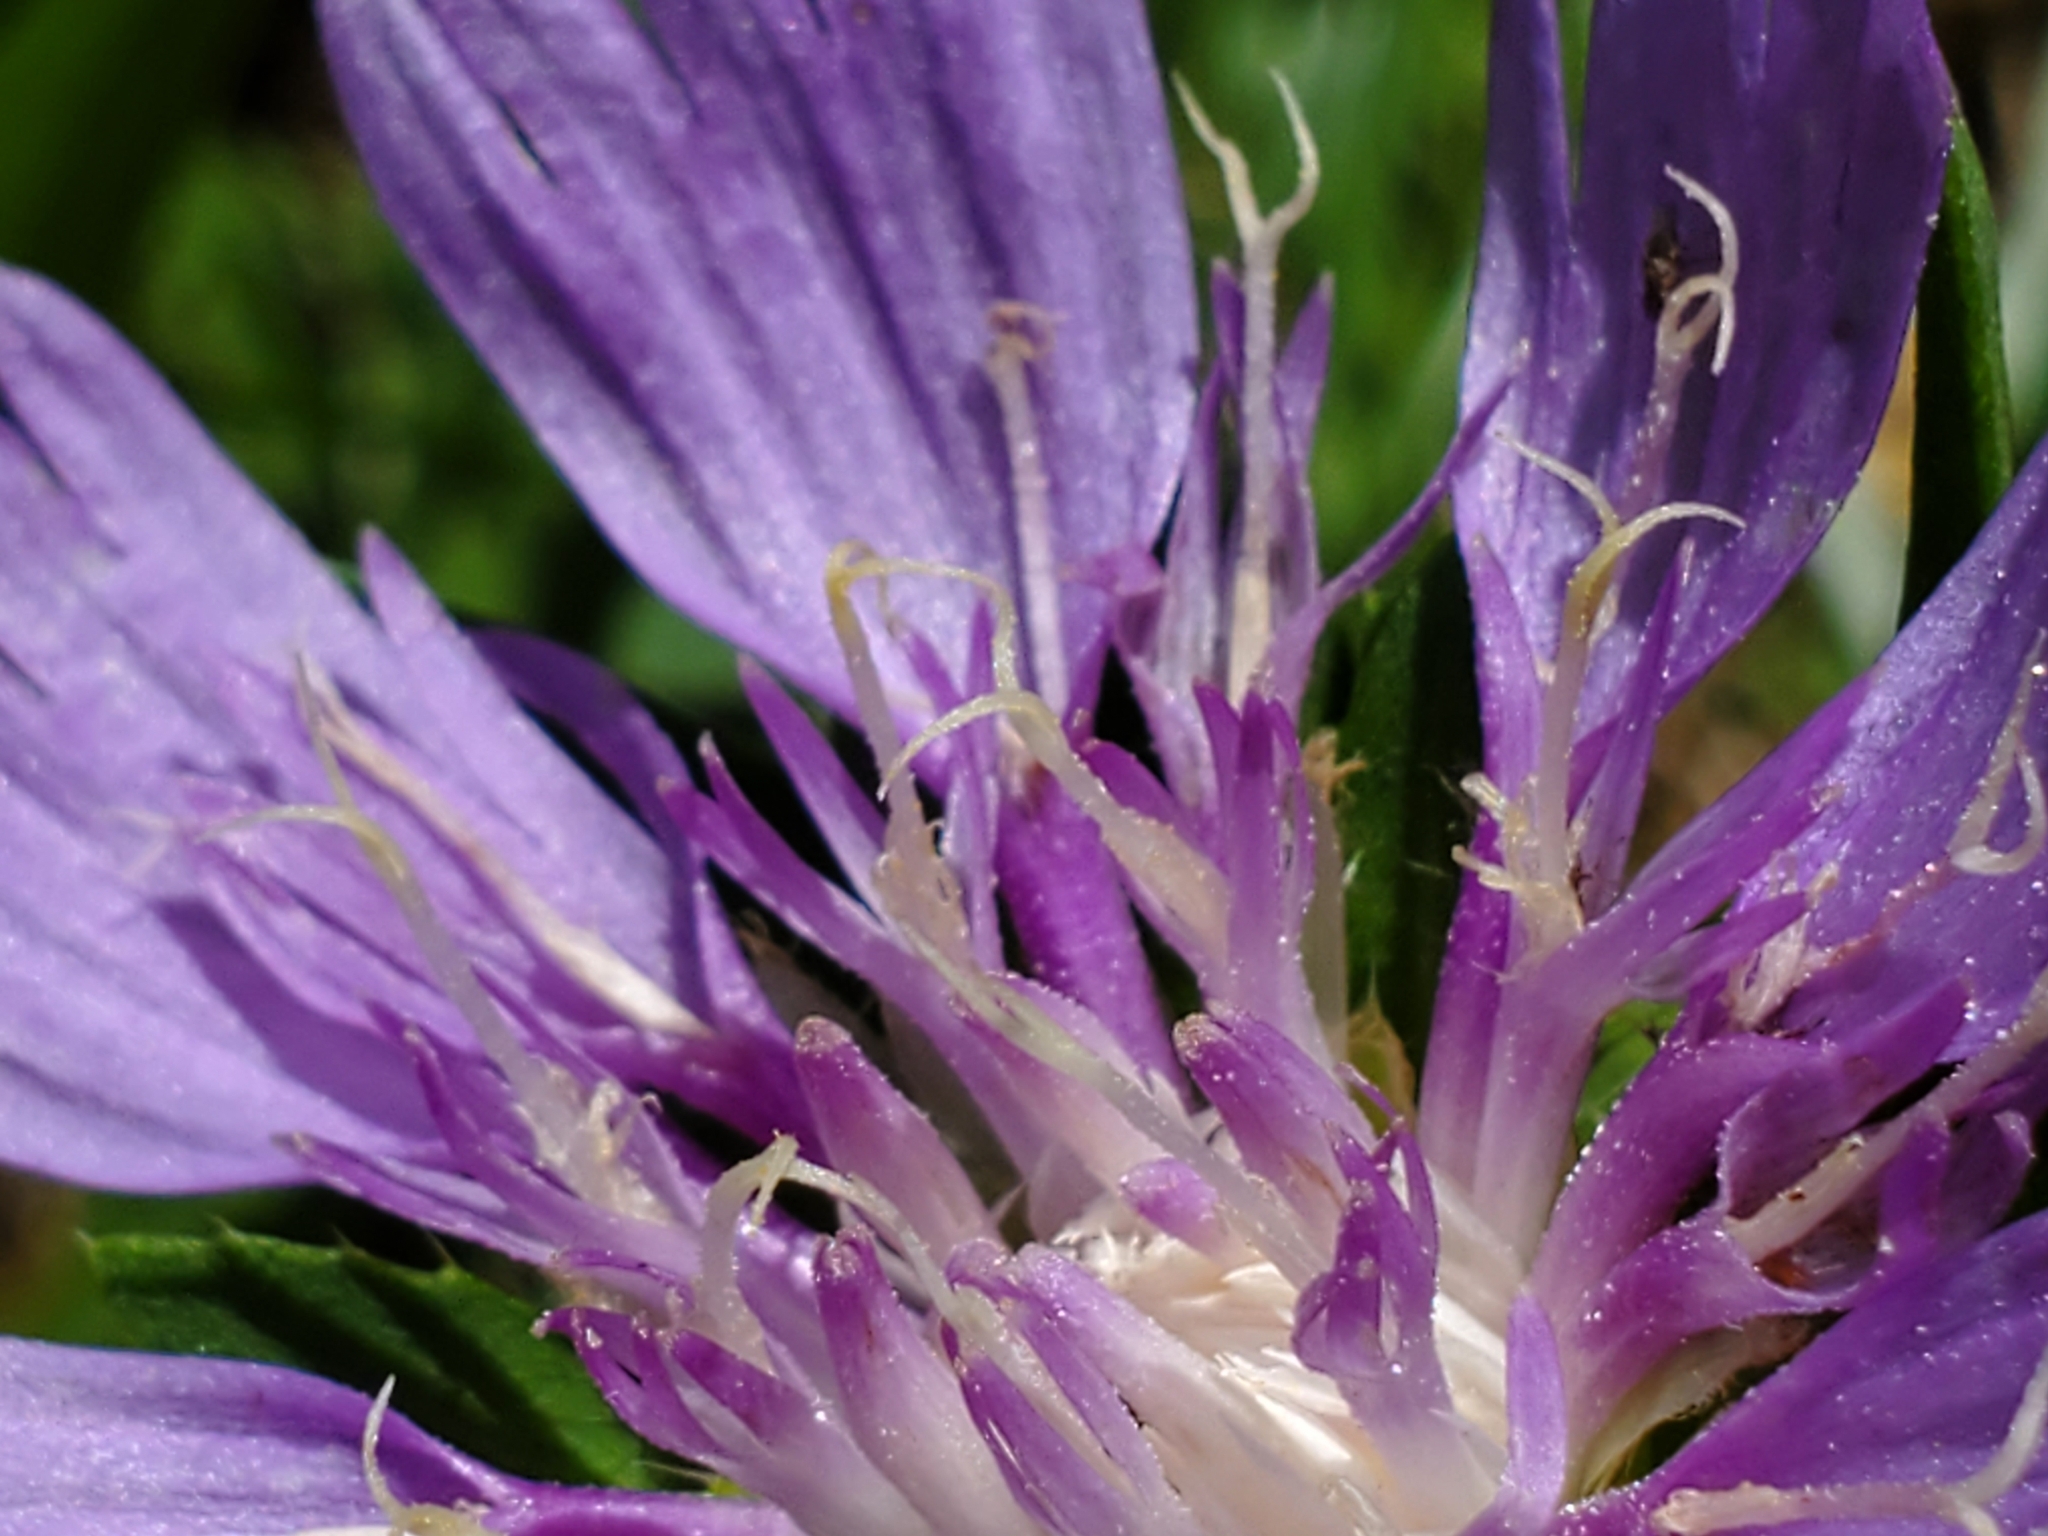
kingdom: Plantae
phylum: Tracheophyta
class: Magnoliopsida
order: Asterales
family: Asteraceae
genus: Stokesia
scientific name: Stokesia laevis
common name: Stokes'-aster
